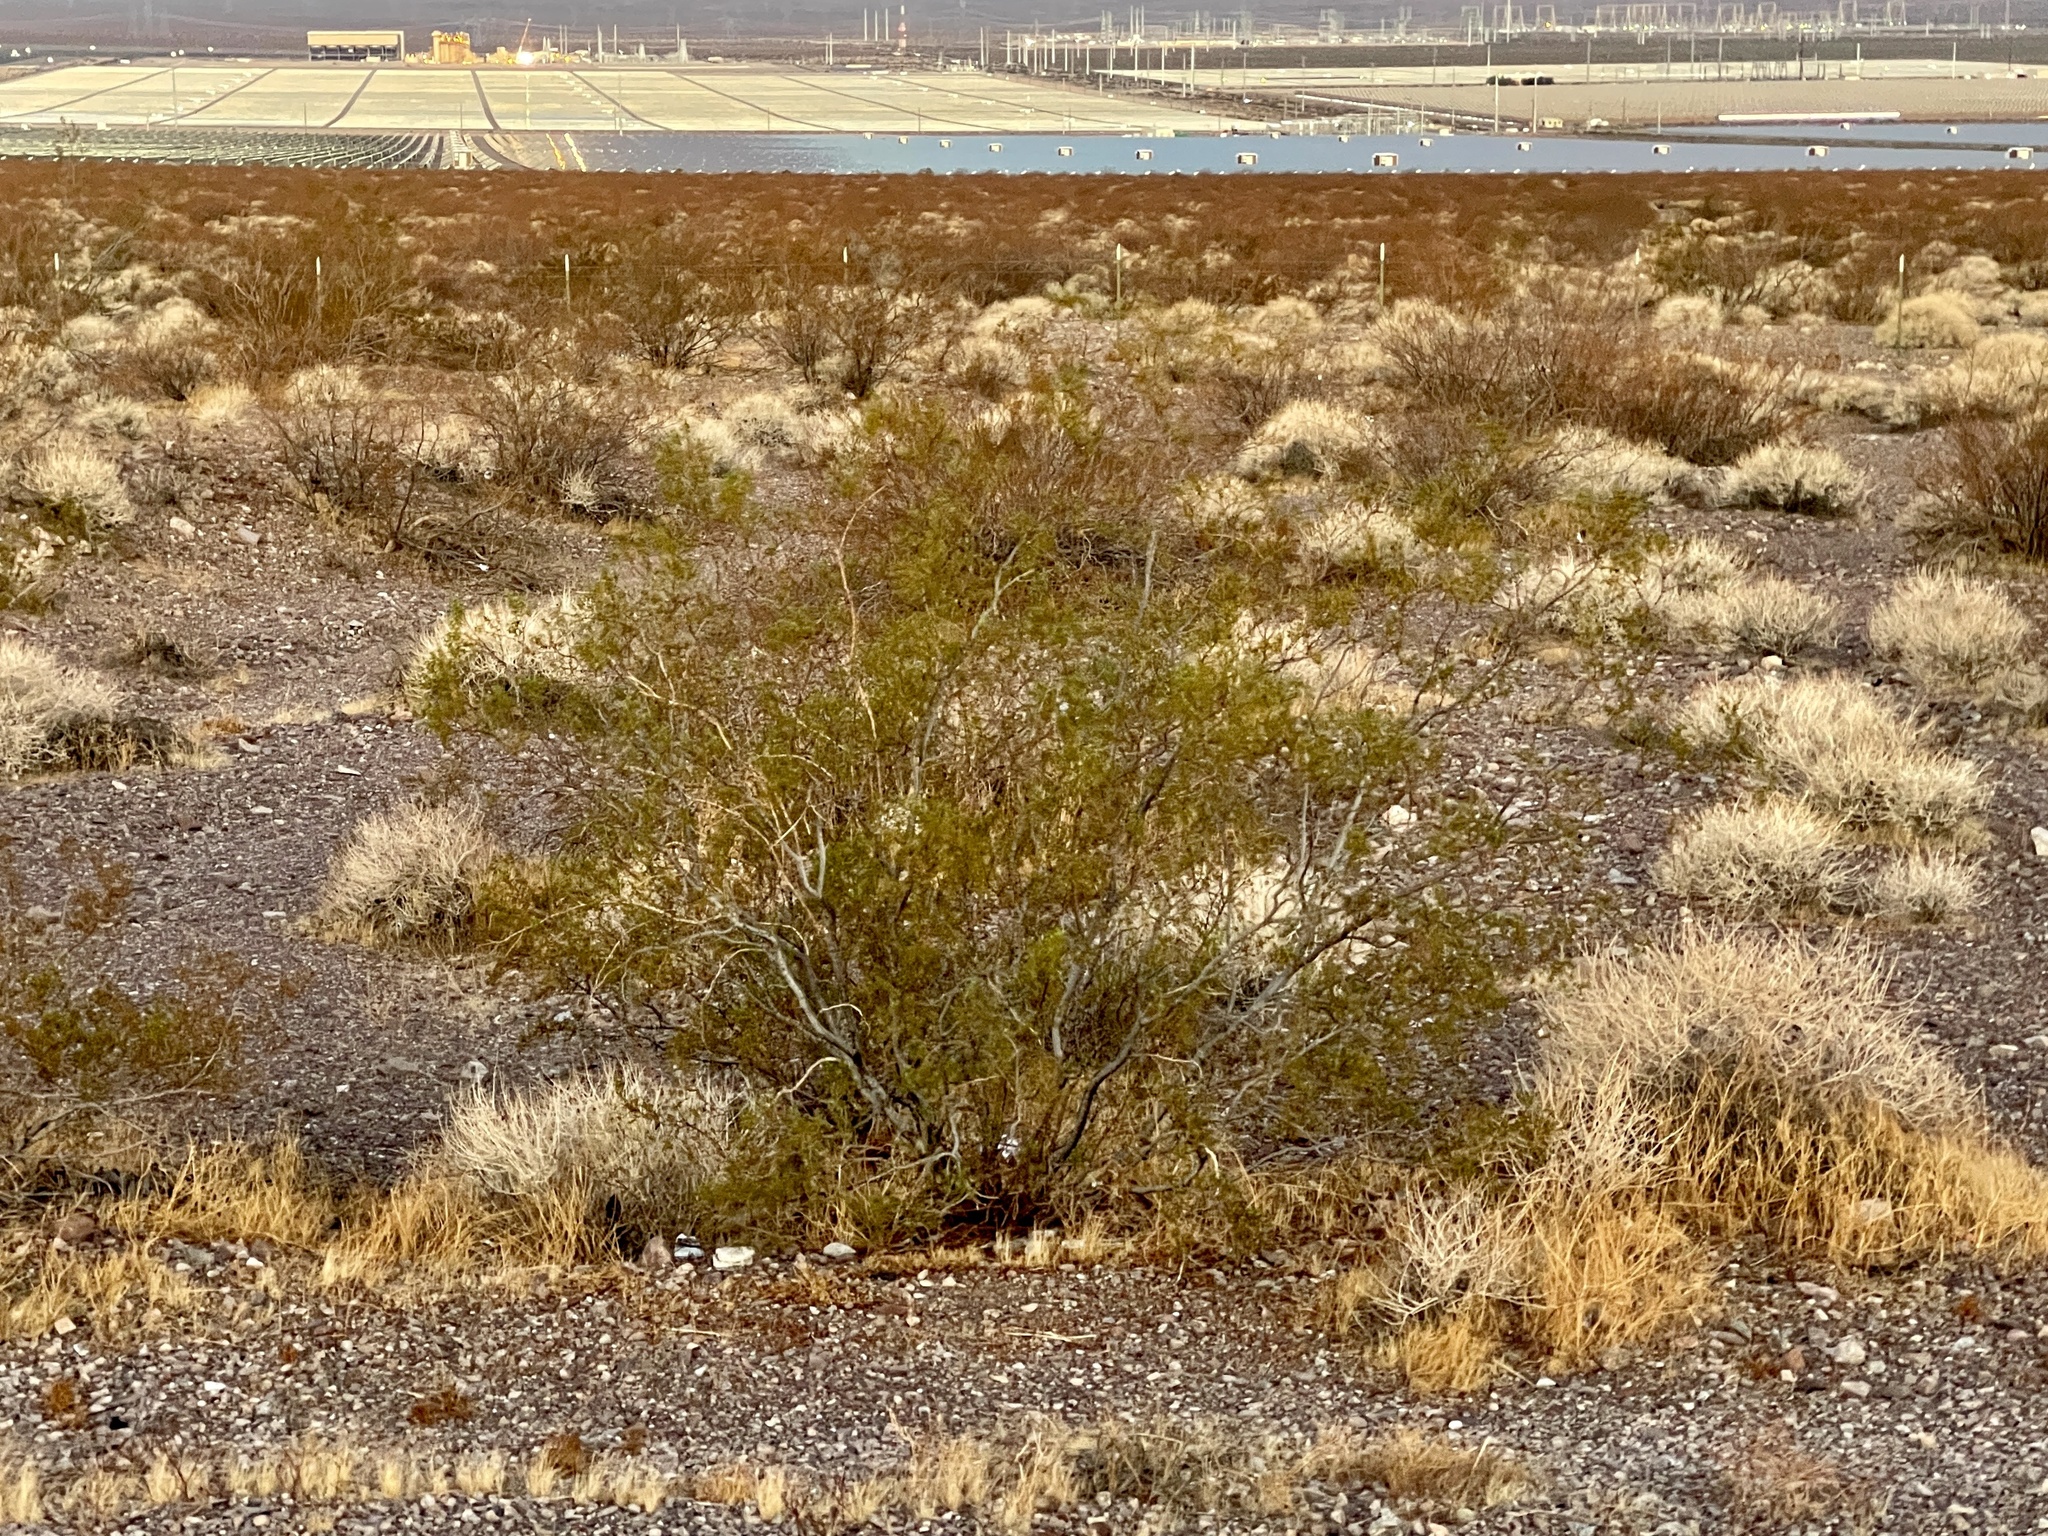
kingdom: Plantae
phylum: Tracheophyta
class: Magnoliopsida
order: Zygophyllales
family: Zygophyllaceae
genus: Larrea
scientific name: Larrea tridentata
